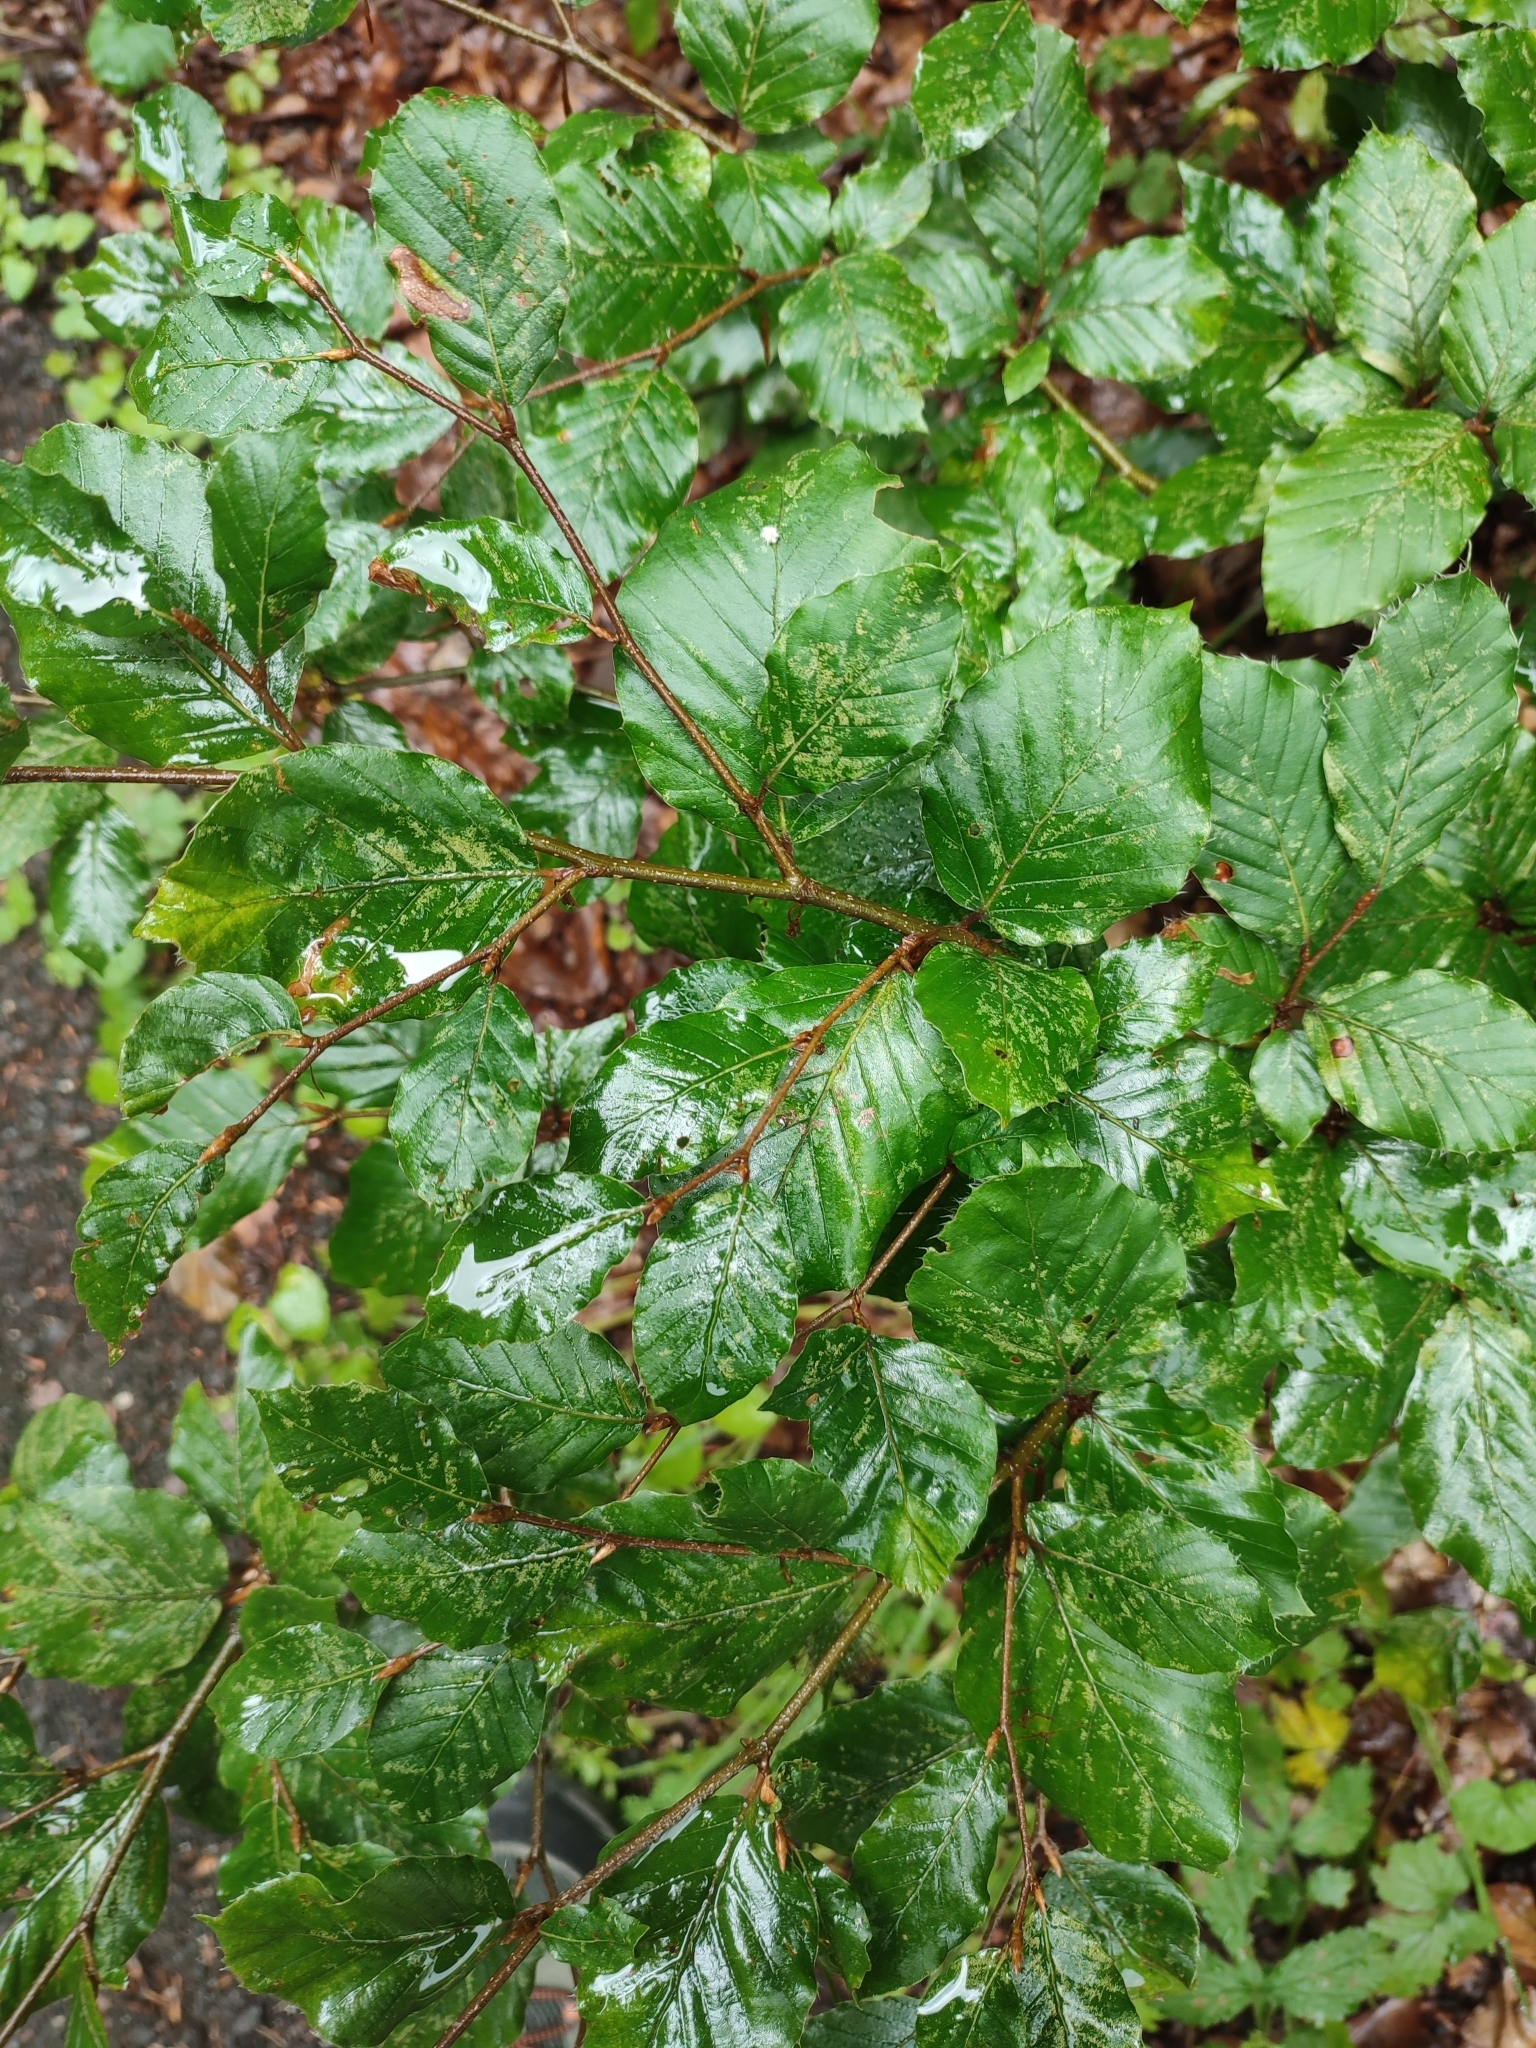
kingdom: Plantae
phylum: Tracheophyta
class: Magnoliopsida
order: Fagales
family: Fagaceae
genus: Fagus
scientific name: Fagus sylvatica
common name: Beech
